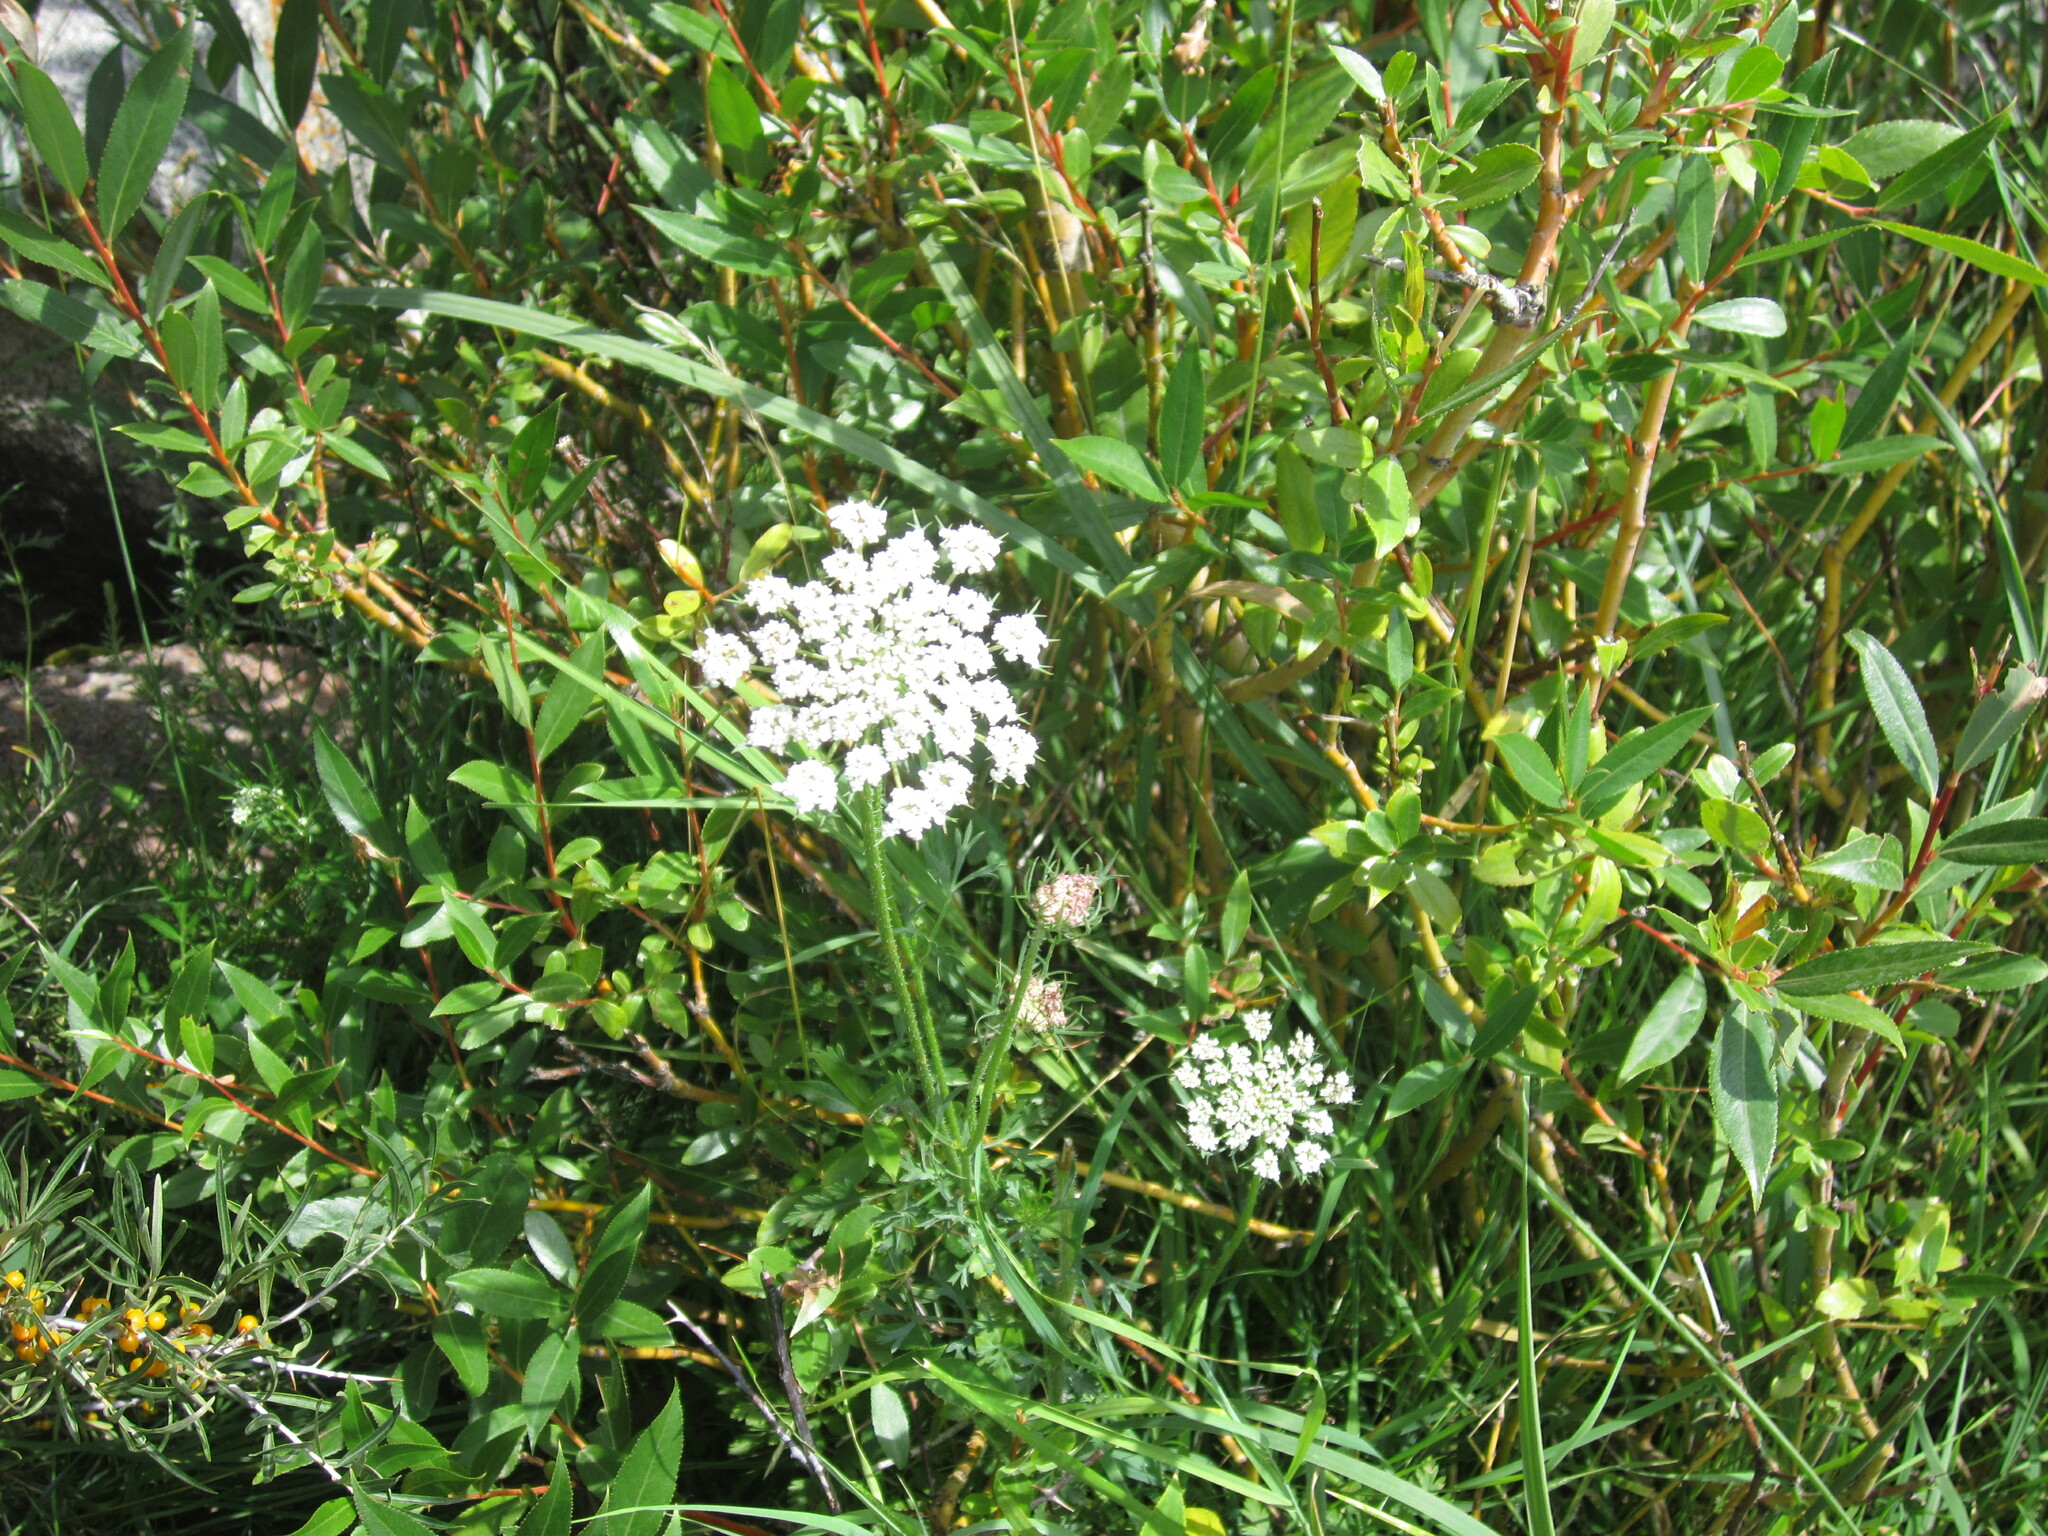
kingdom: Plantae
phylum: Tracheophyta
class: Magnoliopsida
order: Apiales
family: Apiaceae
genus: Daucus
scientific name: Daucus carota
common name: Wild carrot
